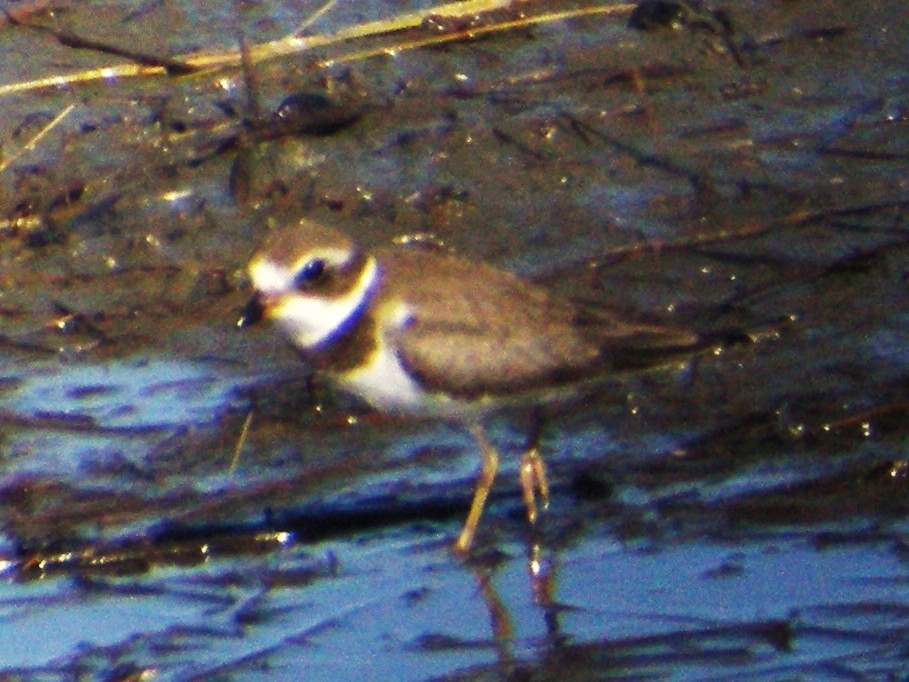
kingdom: Animalia
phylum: Chordata
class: Aves
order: Charadriiformes
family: Charadriidae
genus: Charadrius
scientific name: Charadrius semipalmatus
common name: Semipalmated plover
